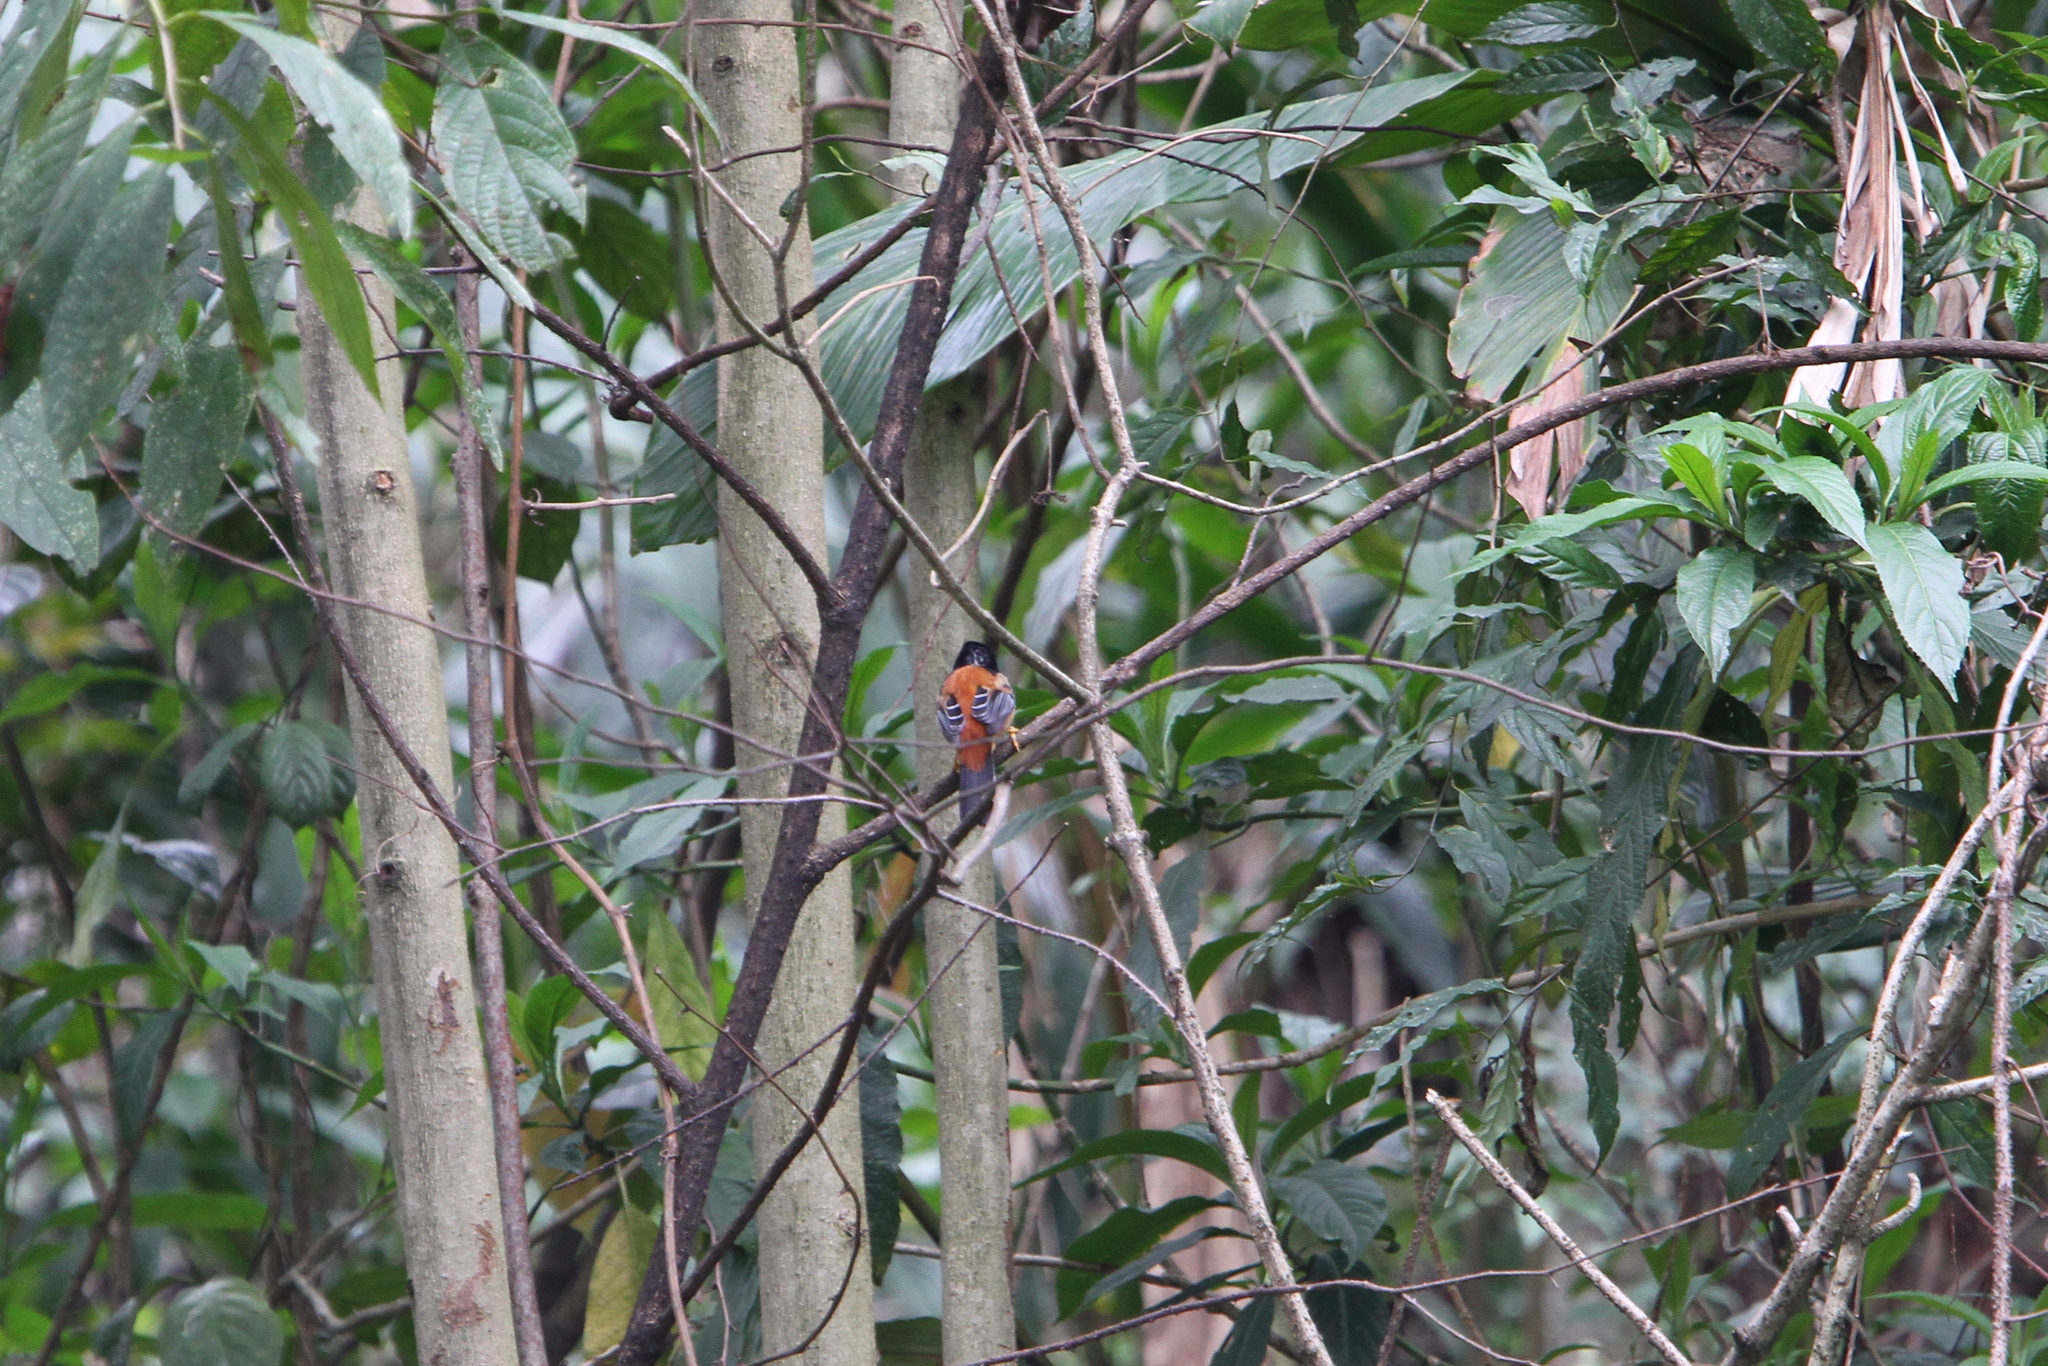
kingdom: Animalia
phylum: Chordata
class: Aves
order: Passeriformes
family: Leiothrichidae
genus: Cutia
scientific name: Cutia nipalensis
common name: Himalayan cutia
